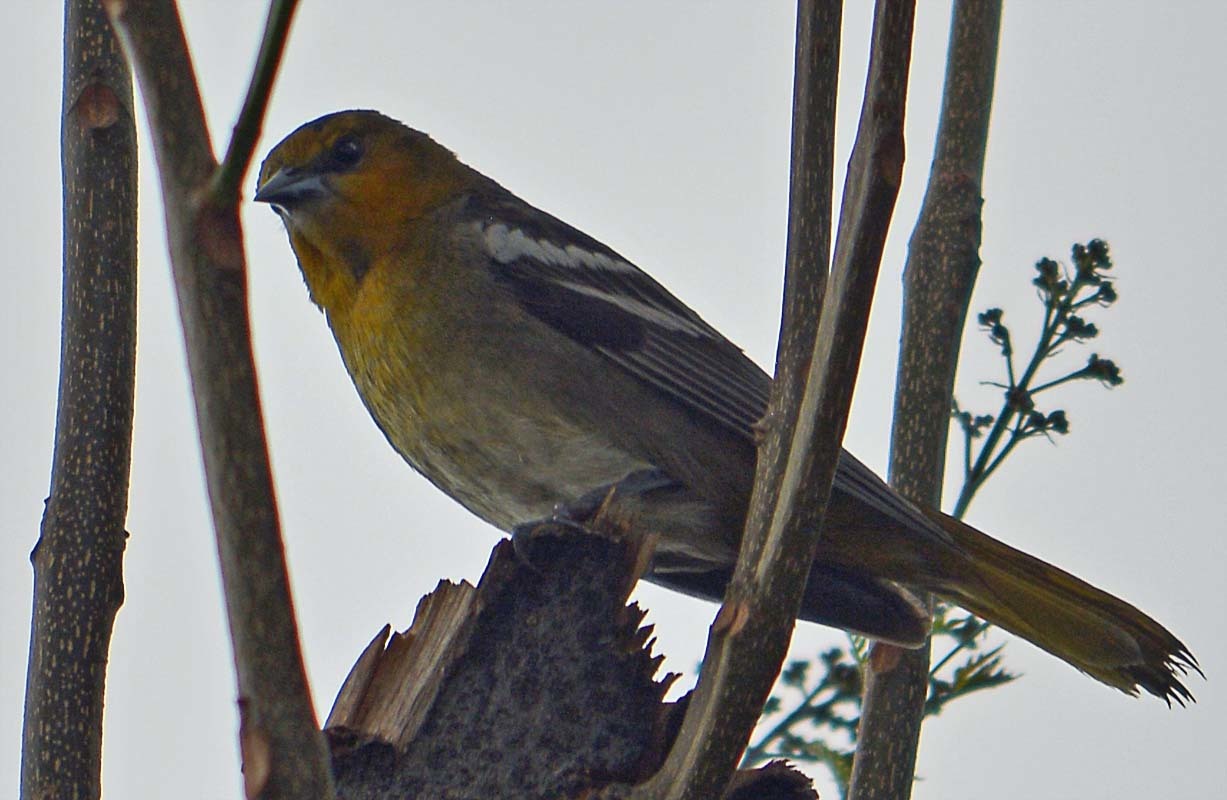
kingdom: Animalia
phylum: Chordata
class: Aves
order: Passeriformes
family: Icteridae
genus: Icterus
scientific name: Icterus bullockii
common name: Bullock's oriole
